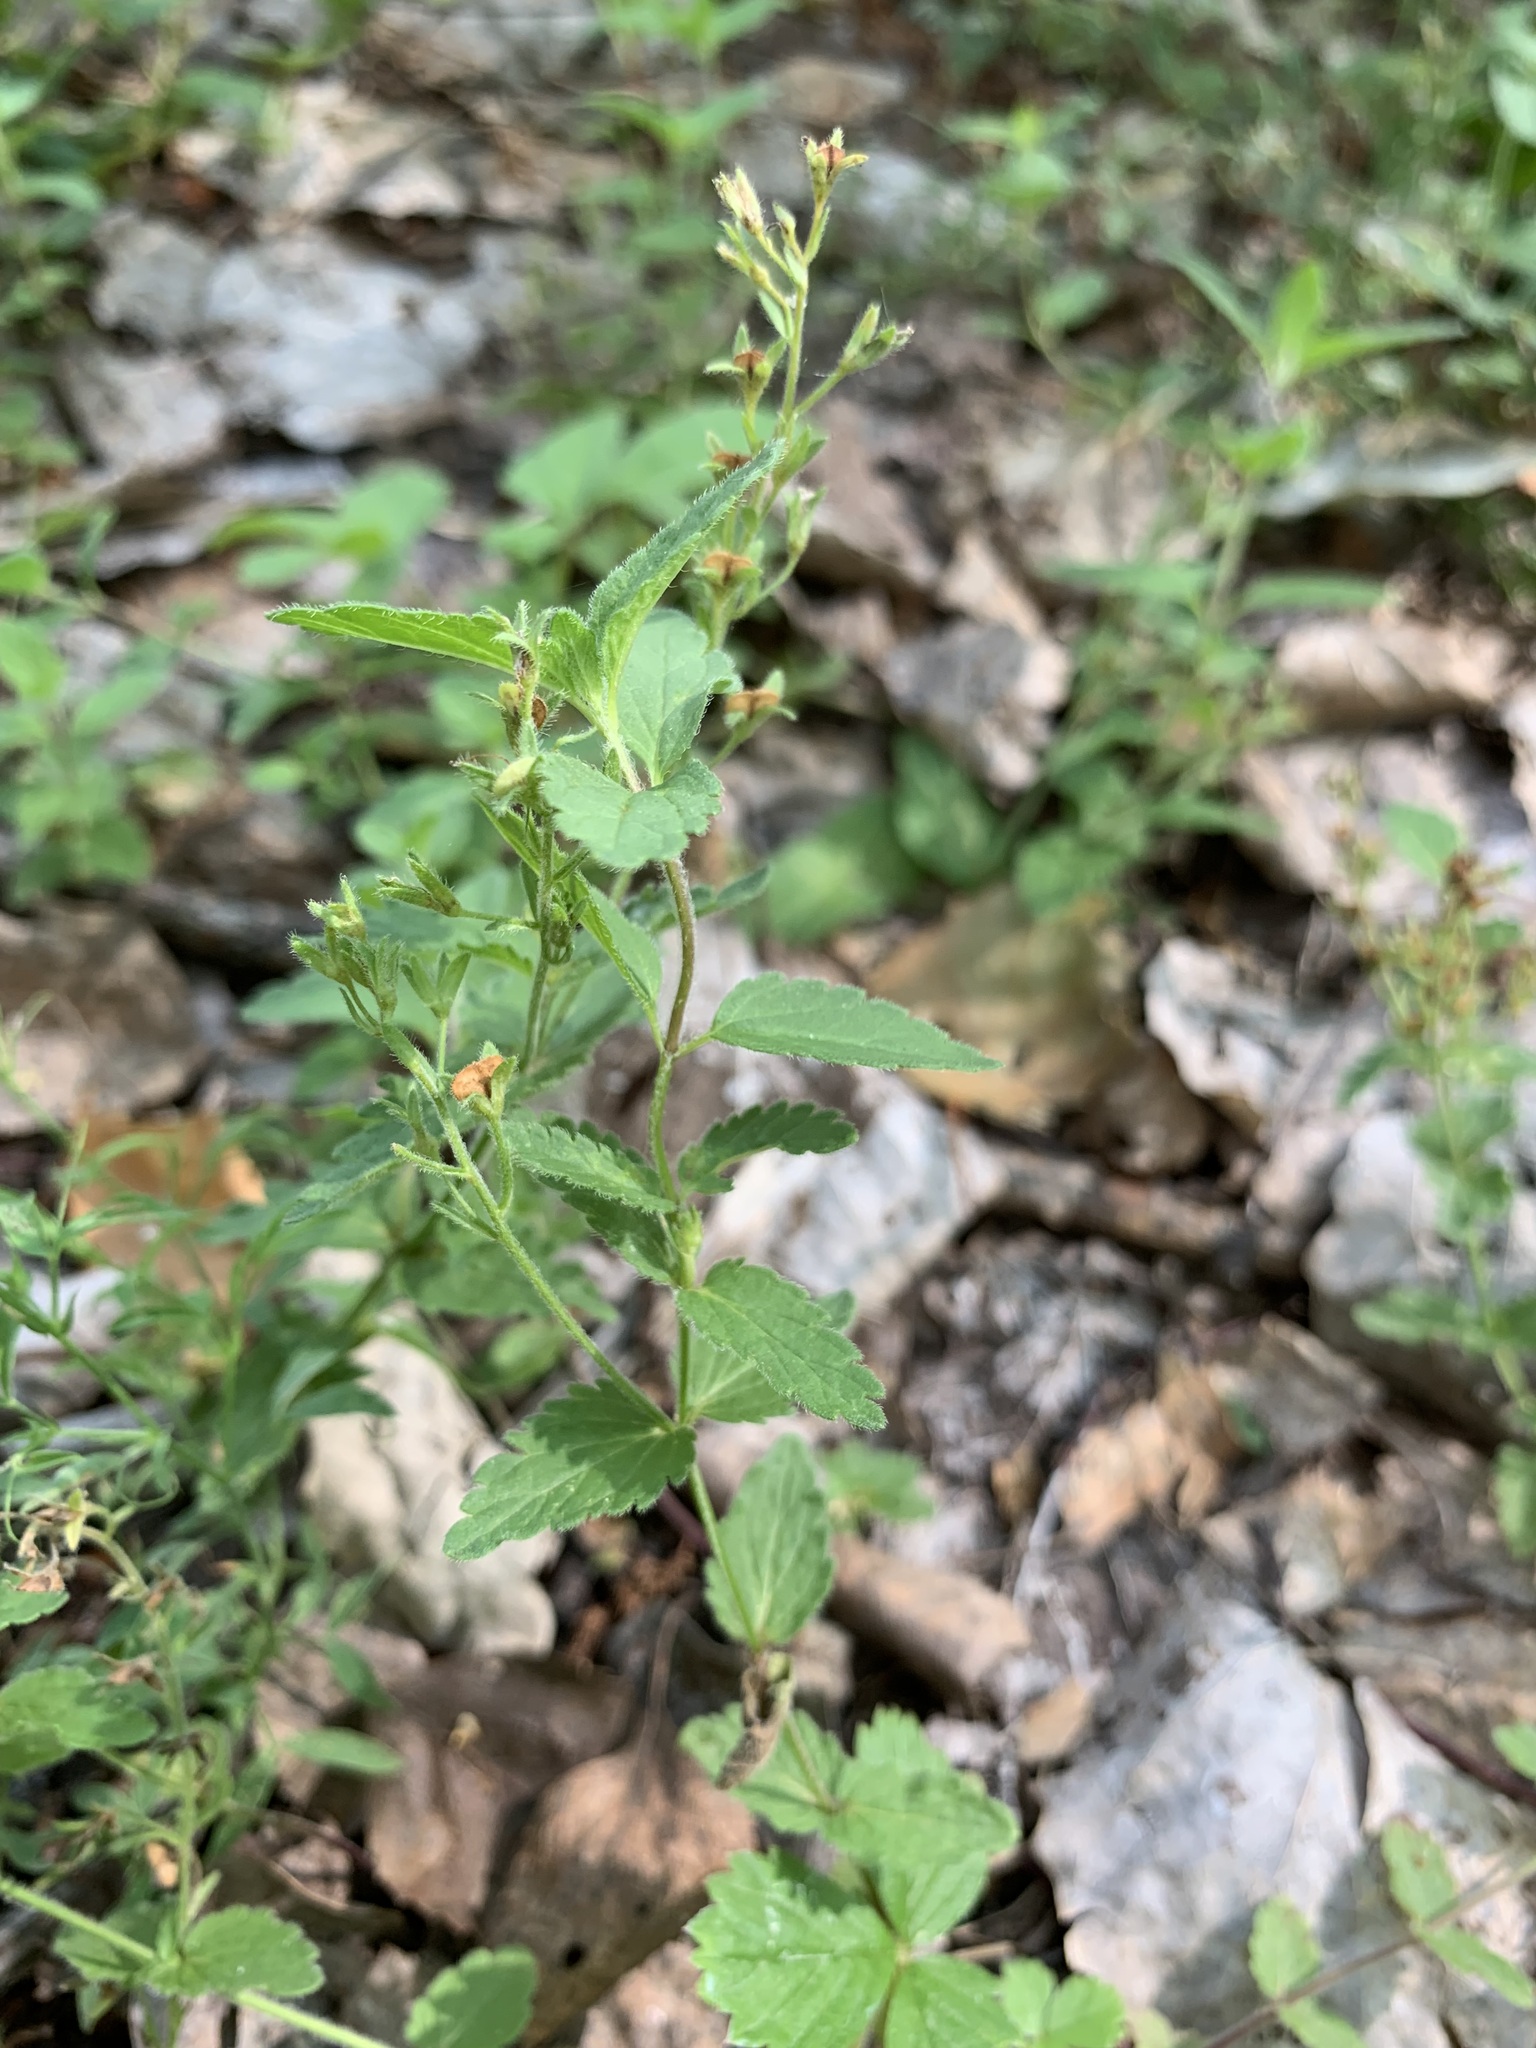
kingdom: Plantae
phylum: Tracheophyta
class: Magnoliopsida
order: Lamiales
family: Plantaginaceae
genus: Veronica
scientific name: Veronica chamaedrys
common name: Germander speedwell
